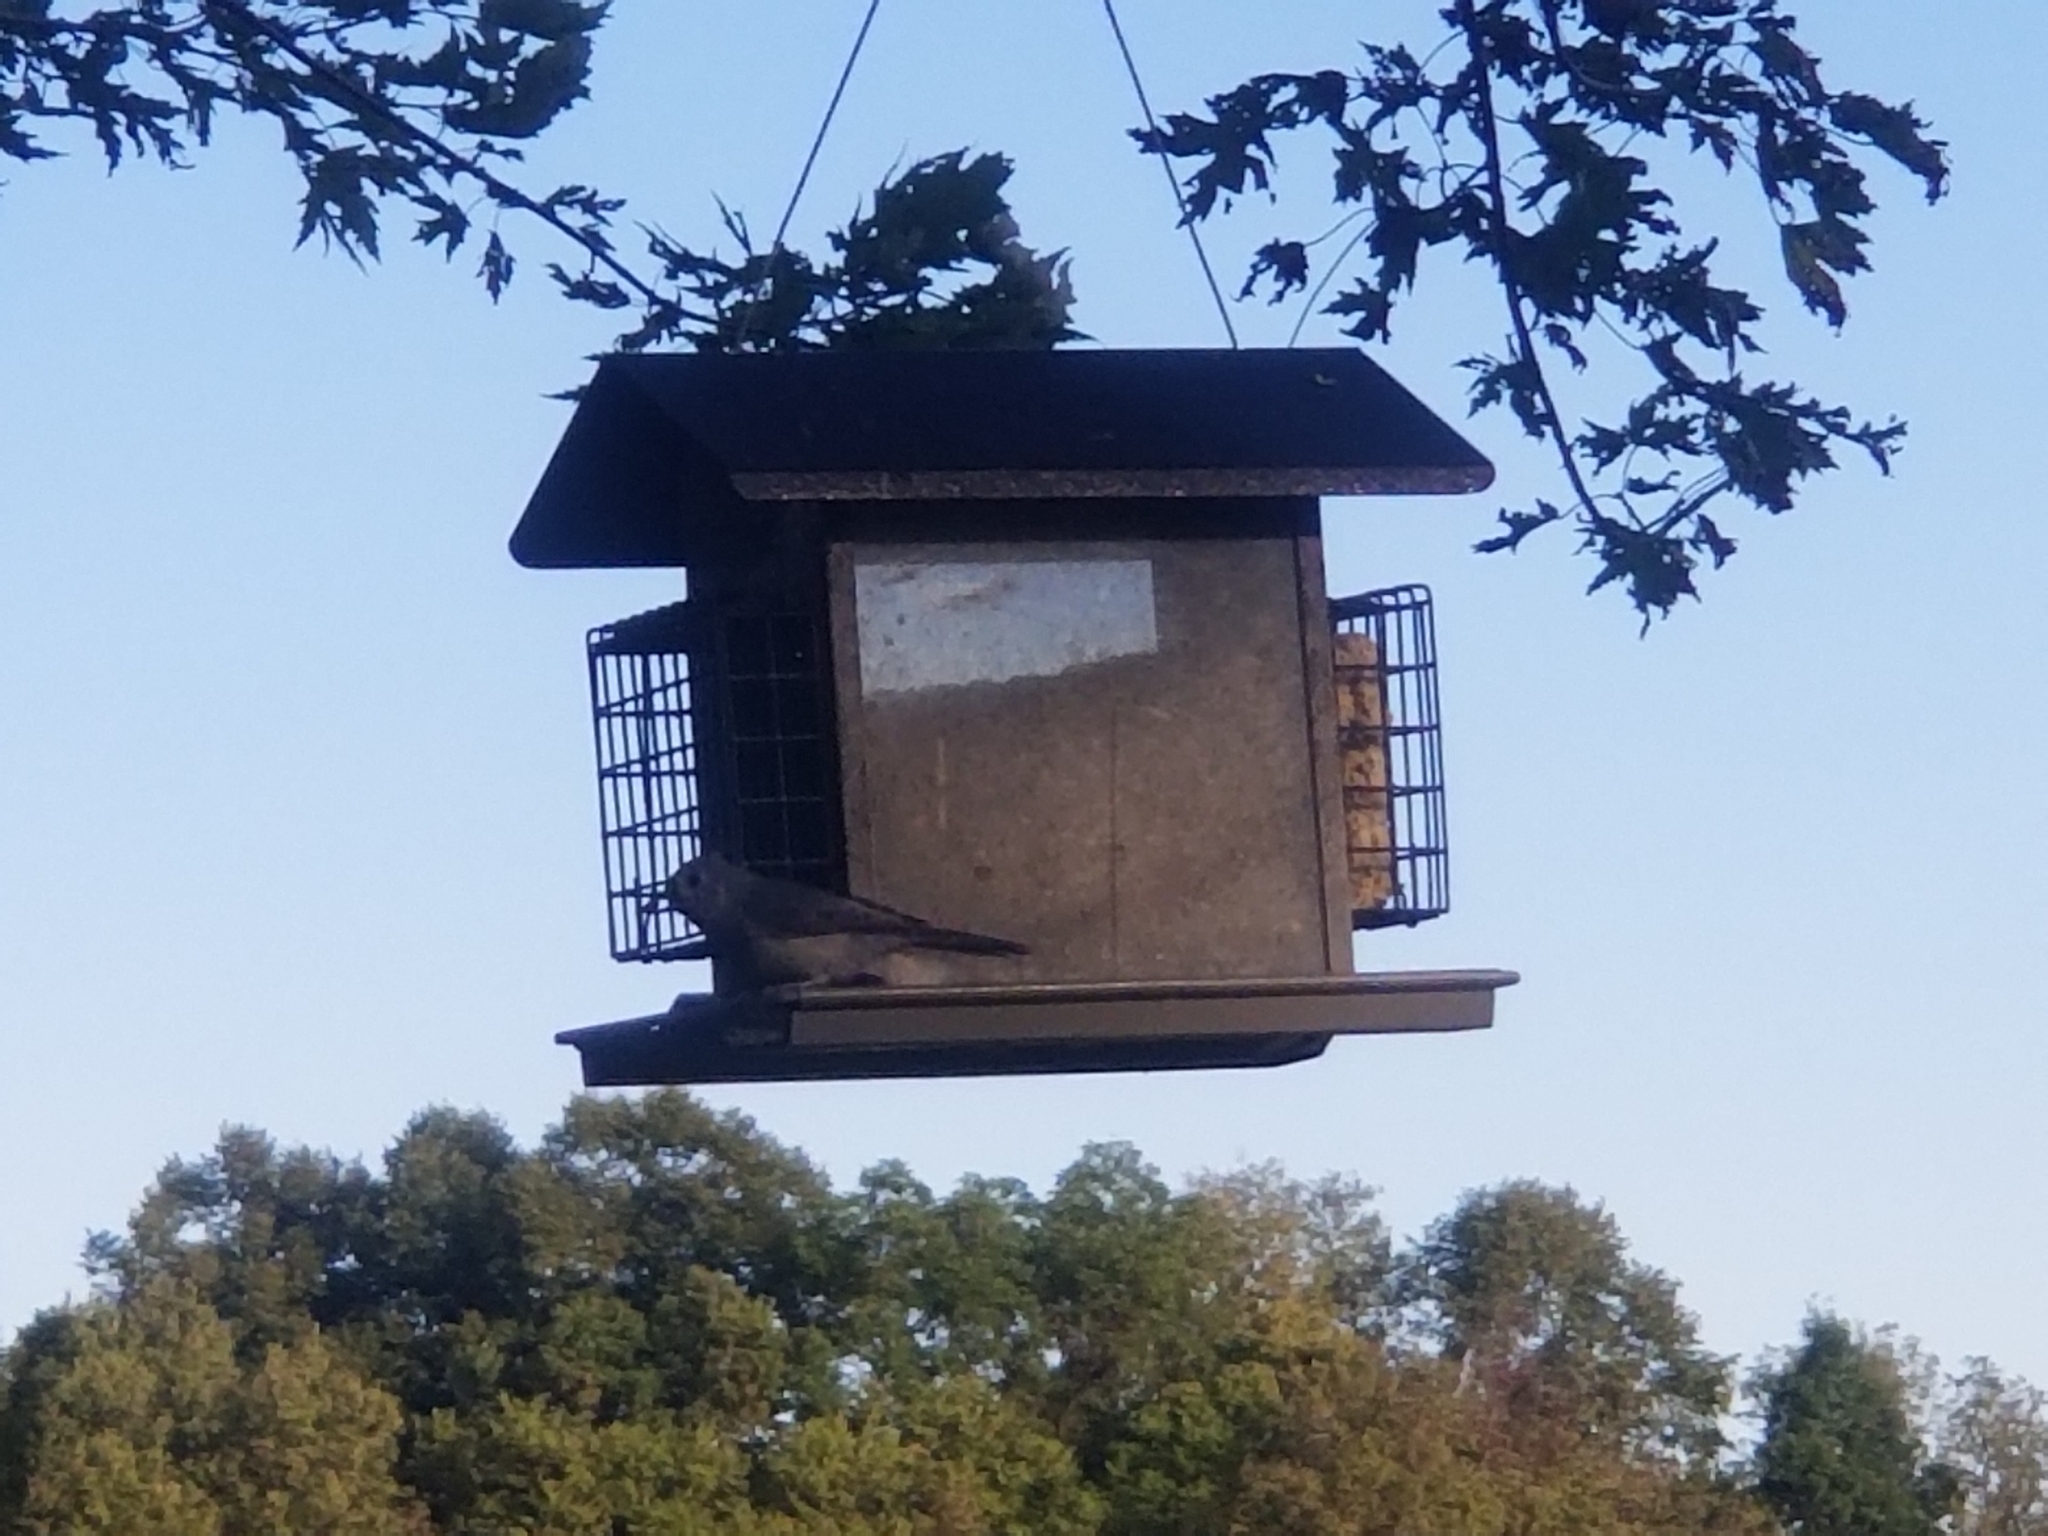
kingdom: Animalia
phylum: Chordata
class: Aves
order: Passeriformes
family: Paridae
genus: Baeolophus
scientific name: Baeolophus bicolor
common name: Tufted titmouse
